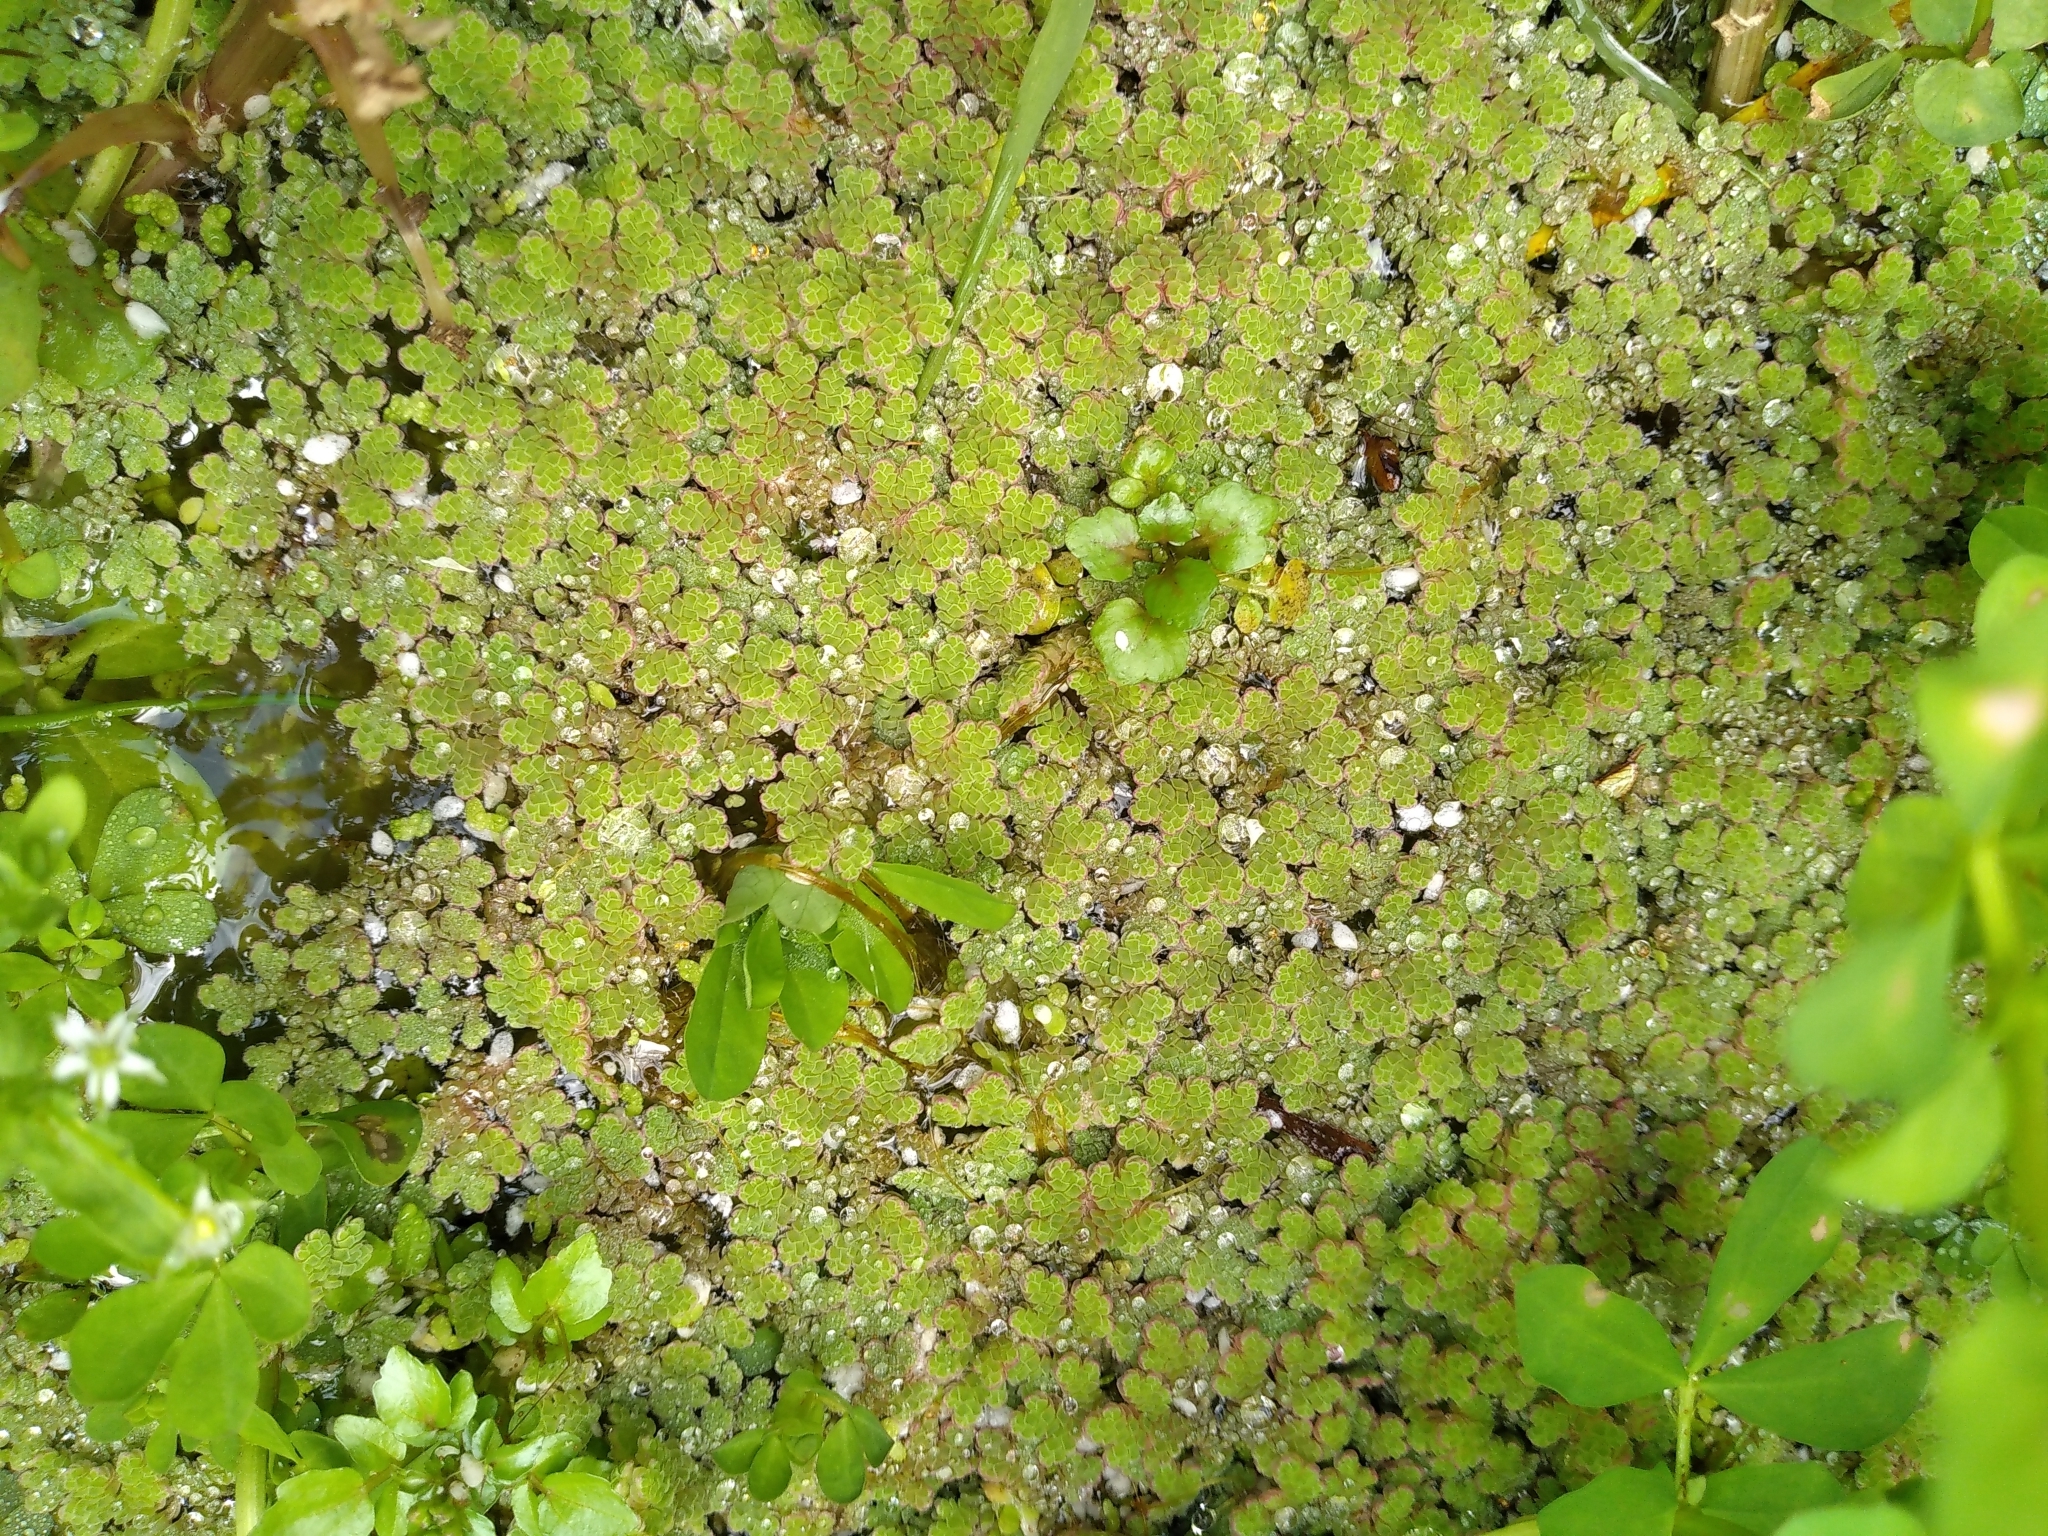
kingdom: Plantae
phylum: Tracheophyta
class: Polypodiopsida
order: Salviniales
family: Salviniaceae
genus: Azolla
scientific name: Azolla rubra
